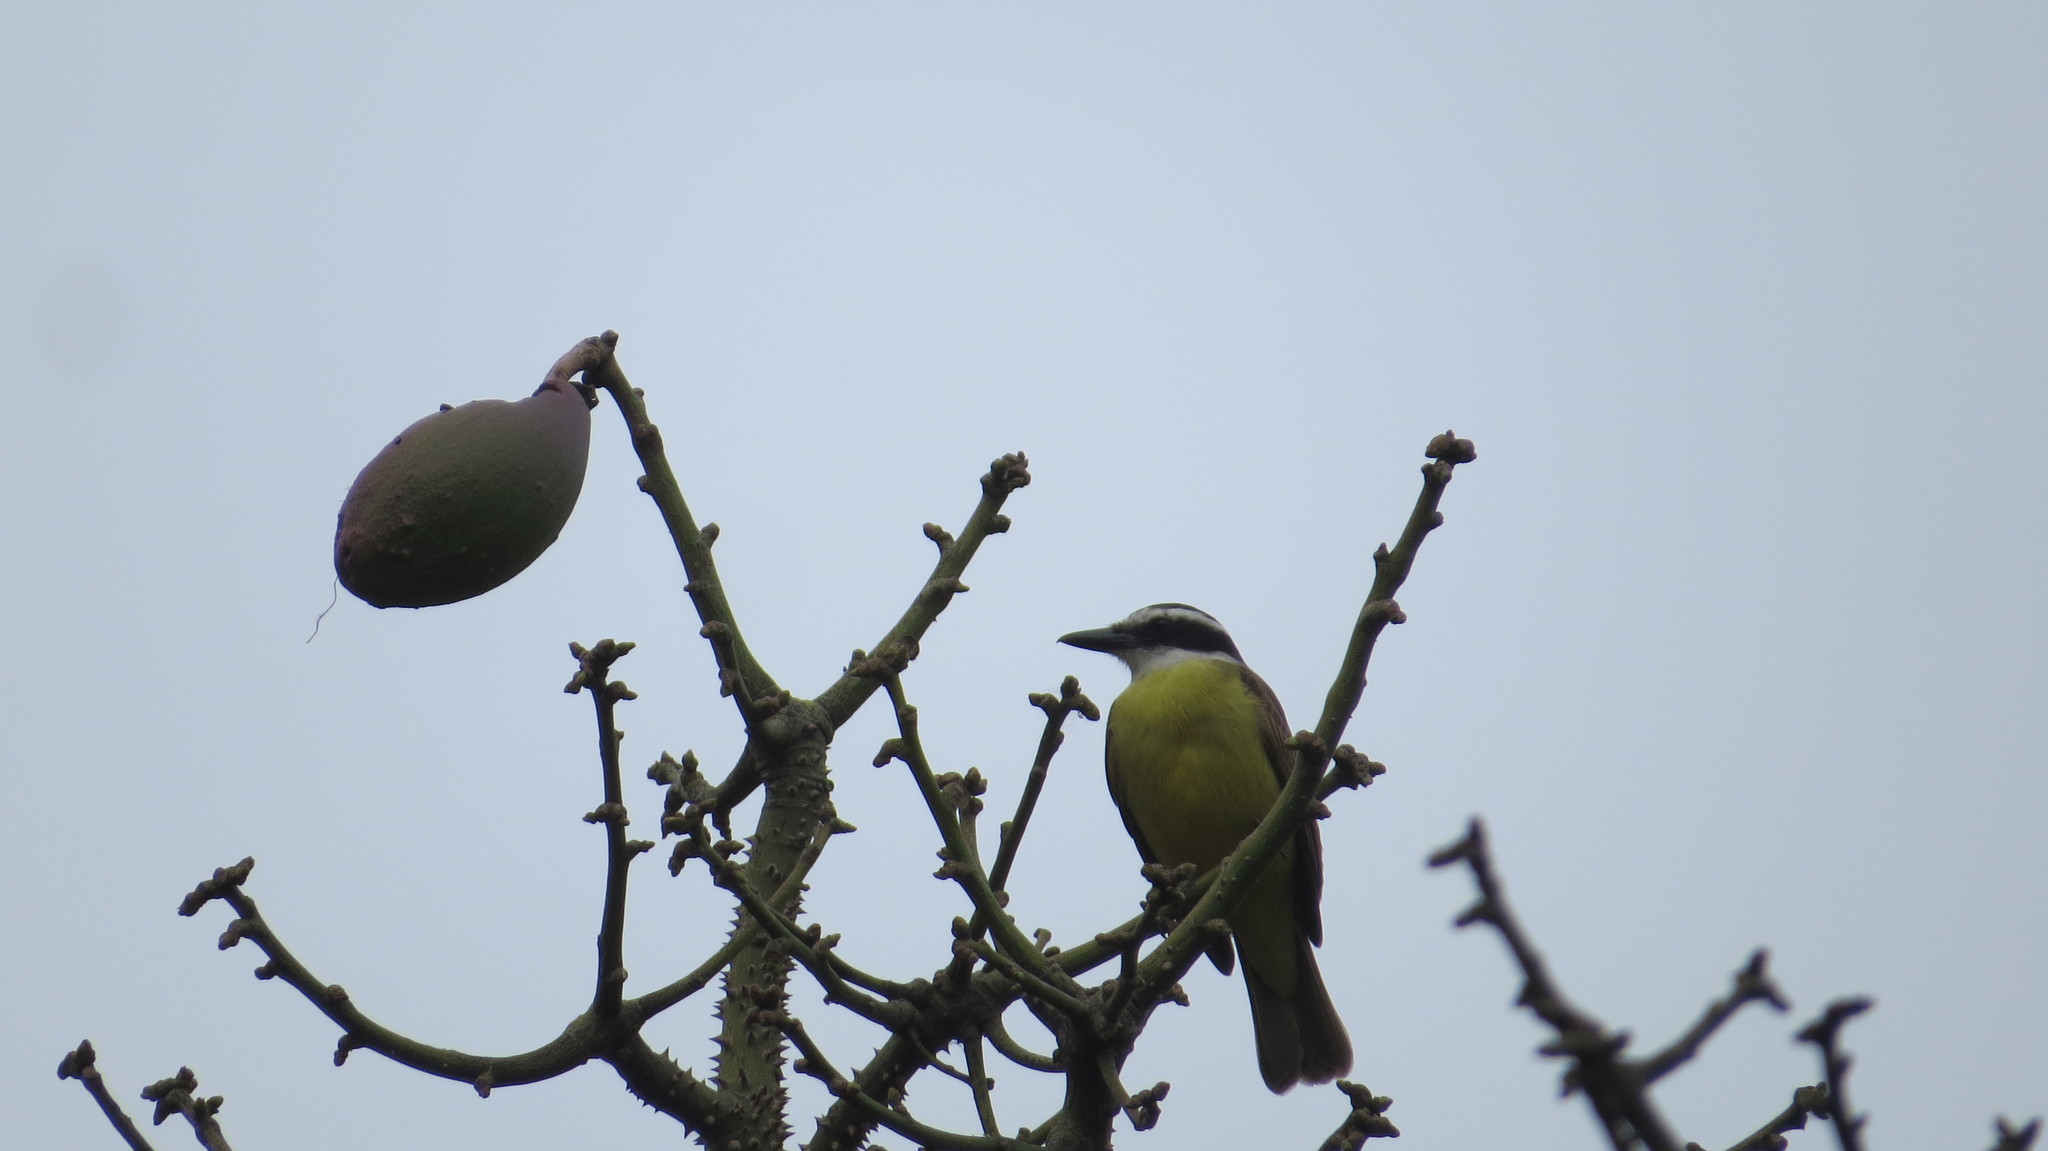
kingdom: Animalia
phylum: Chordata
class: Aves
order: Passeriformes
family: Tyrannidae
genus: Pitangus
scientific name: Pitangus sulphuratus
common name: Great kiskadee
